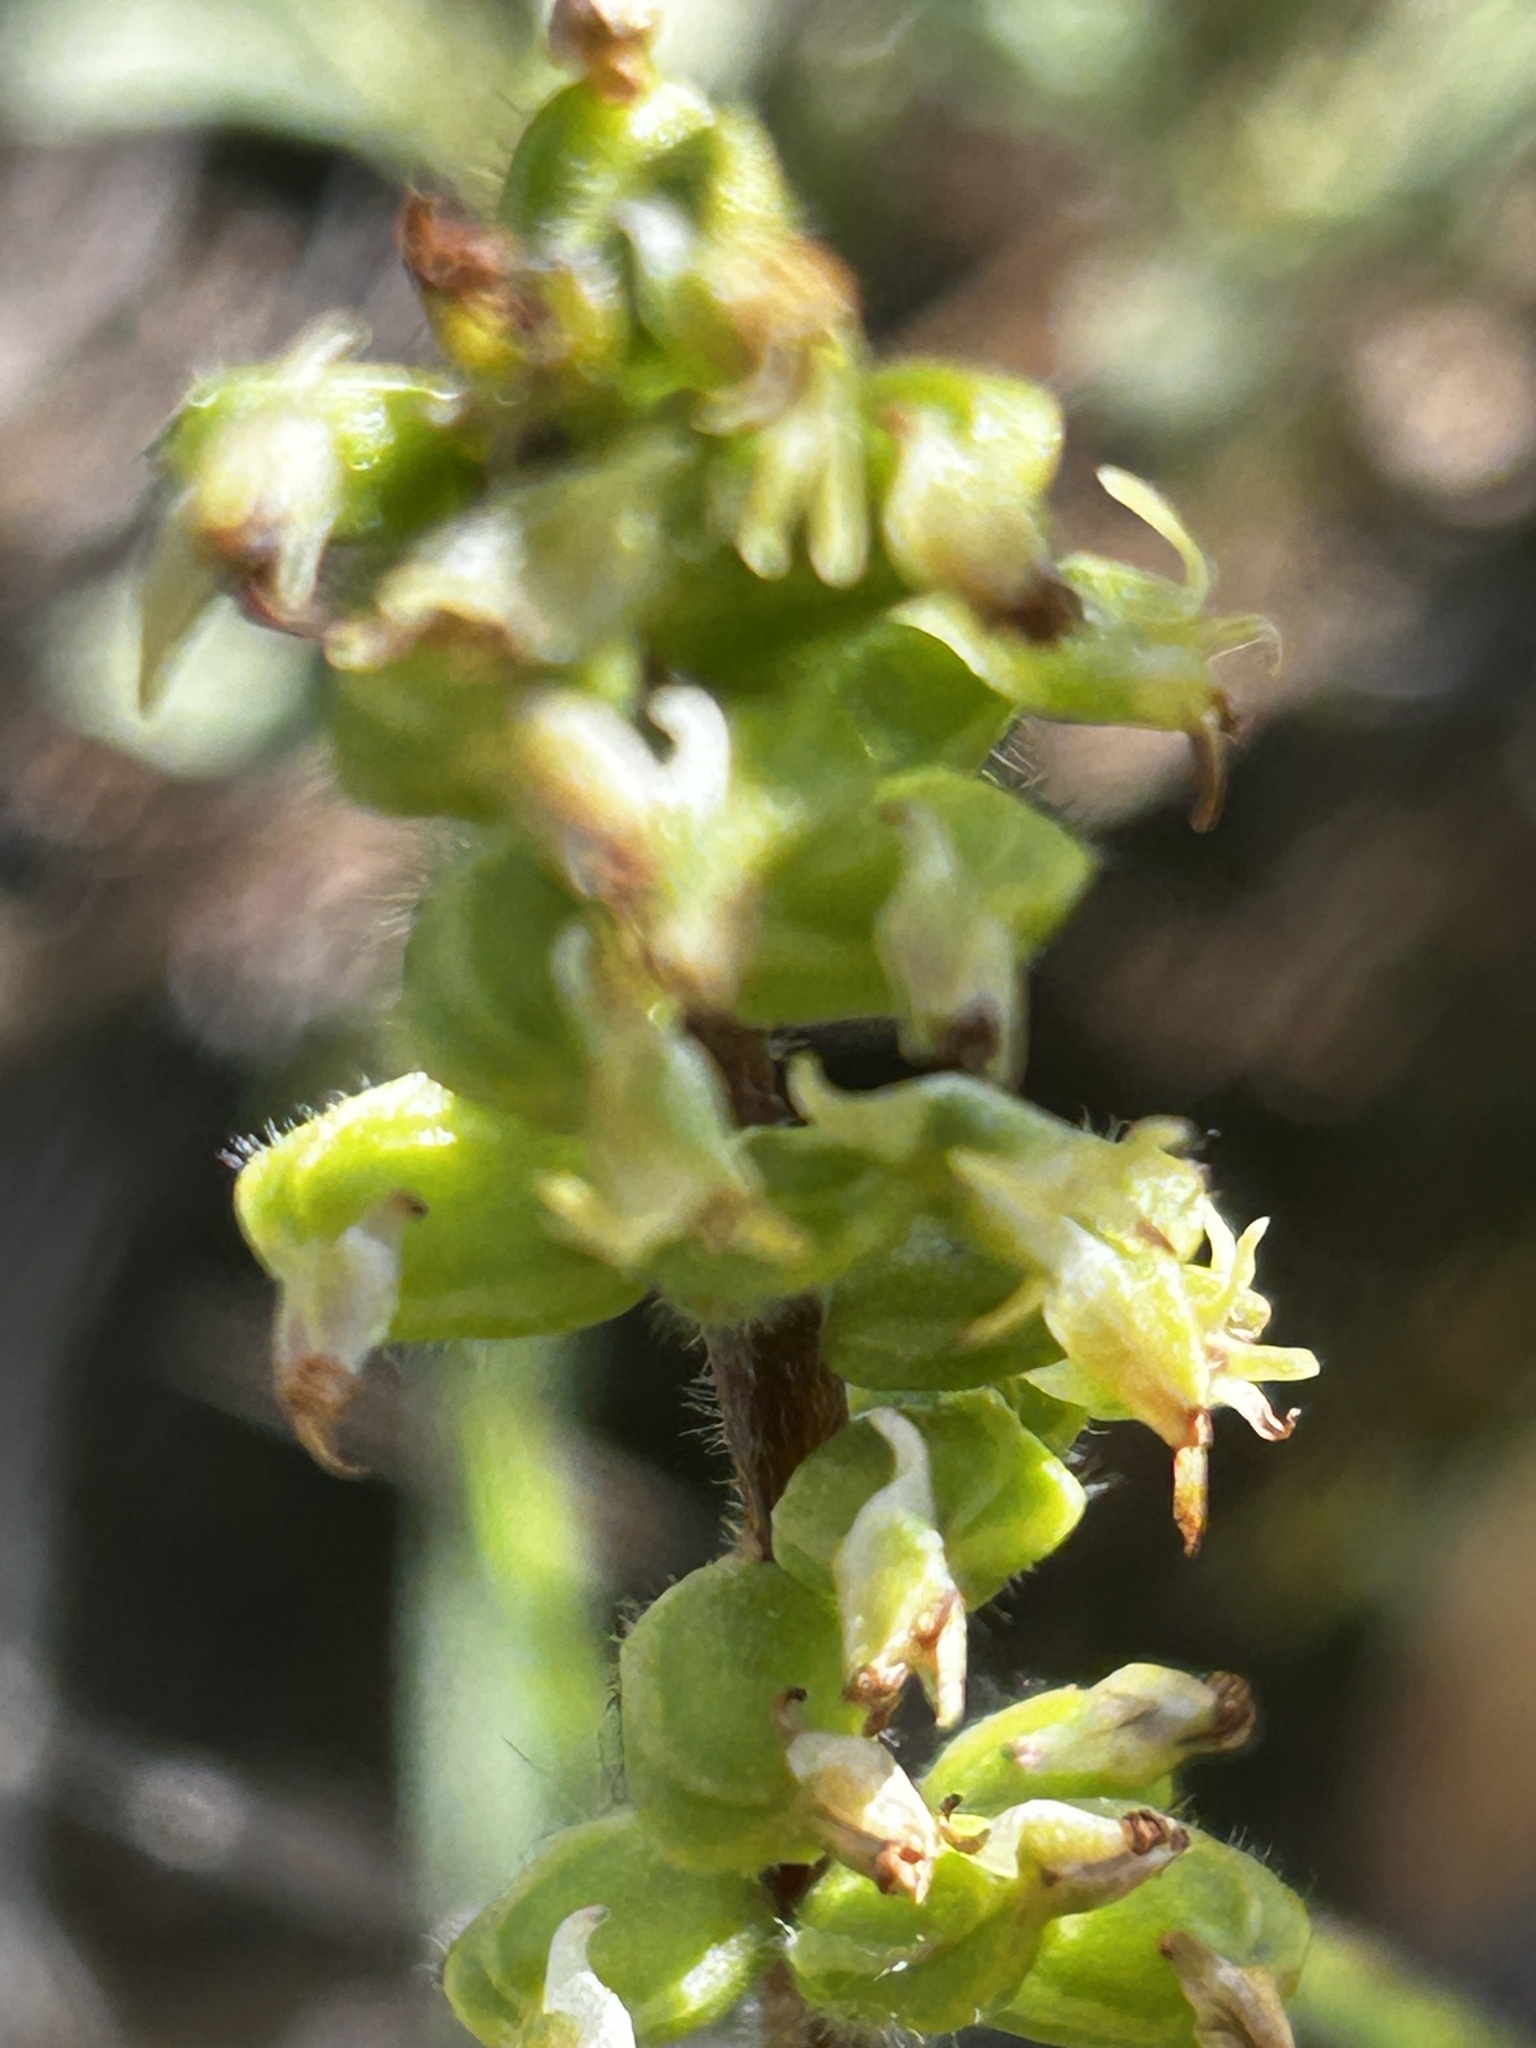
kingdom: Plantae
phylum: Tracheophyta
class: Liliopsida
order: Asparagales
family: Orchidaceae
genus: Holothrix
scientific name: Holothrix villosa
